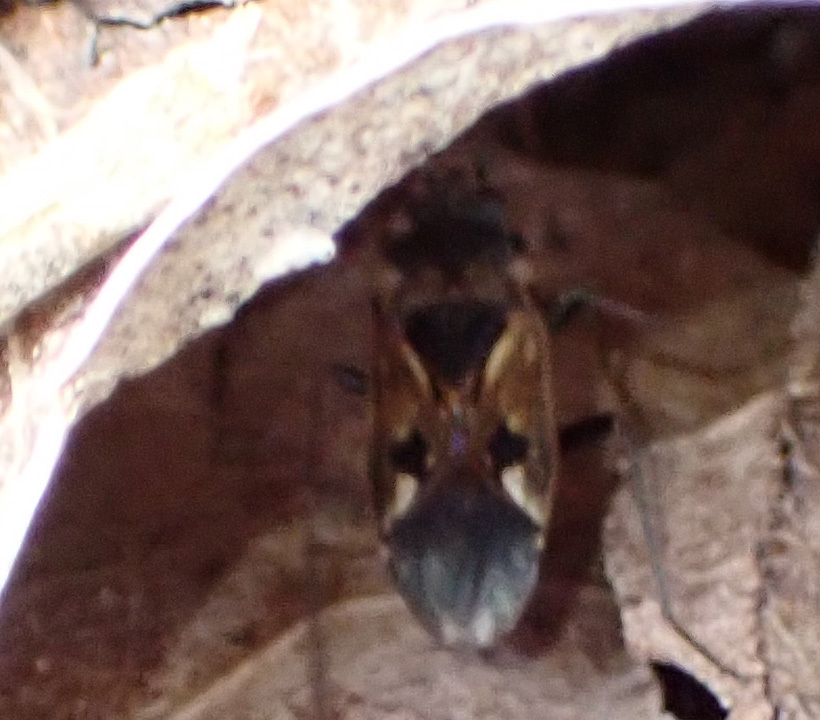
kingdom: Animalia
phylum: Arthropoda
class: Insecta
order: Hemiptera
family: Rhyparochromidae
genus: Rhyparochromus
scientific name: Rhyparochromus vulgaris
